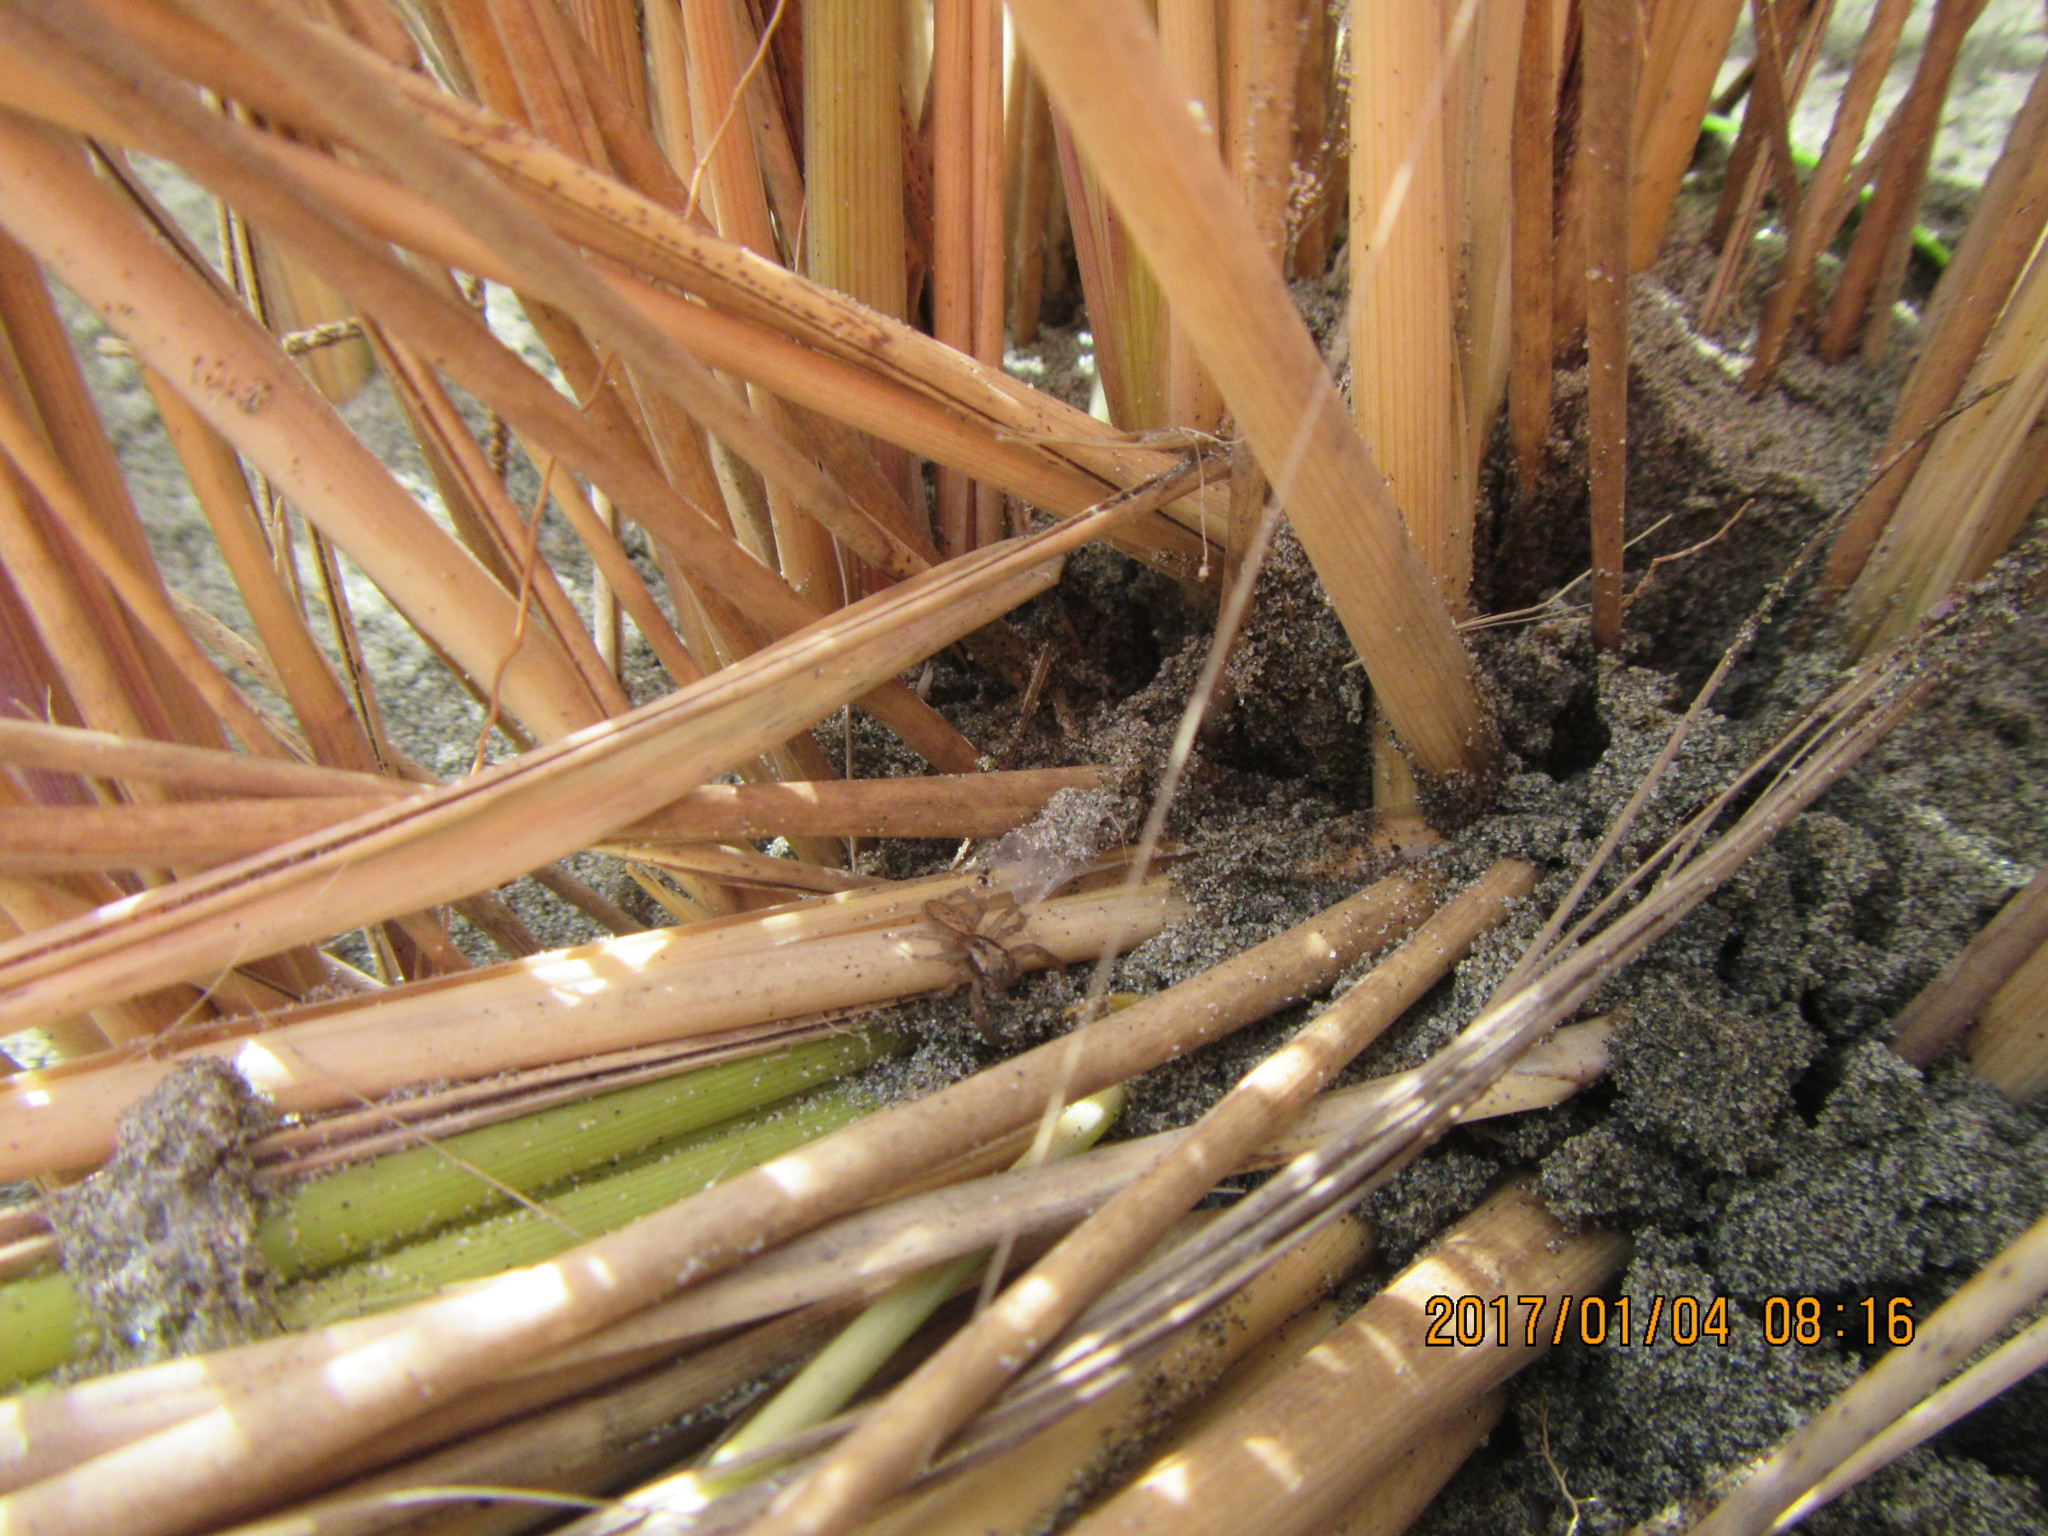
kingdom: Animalia
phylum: Arthropoda
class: Arachnida
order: Araneae
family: Salticidae
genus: Trite
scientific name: Trite auricoma
